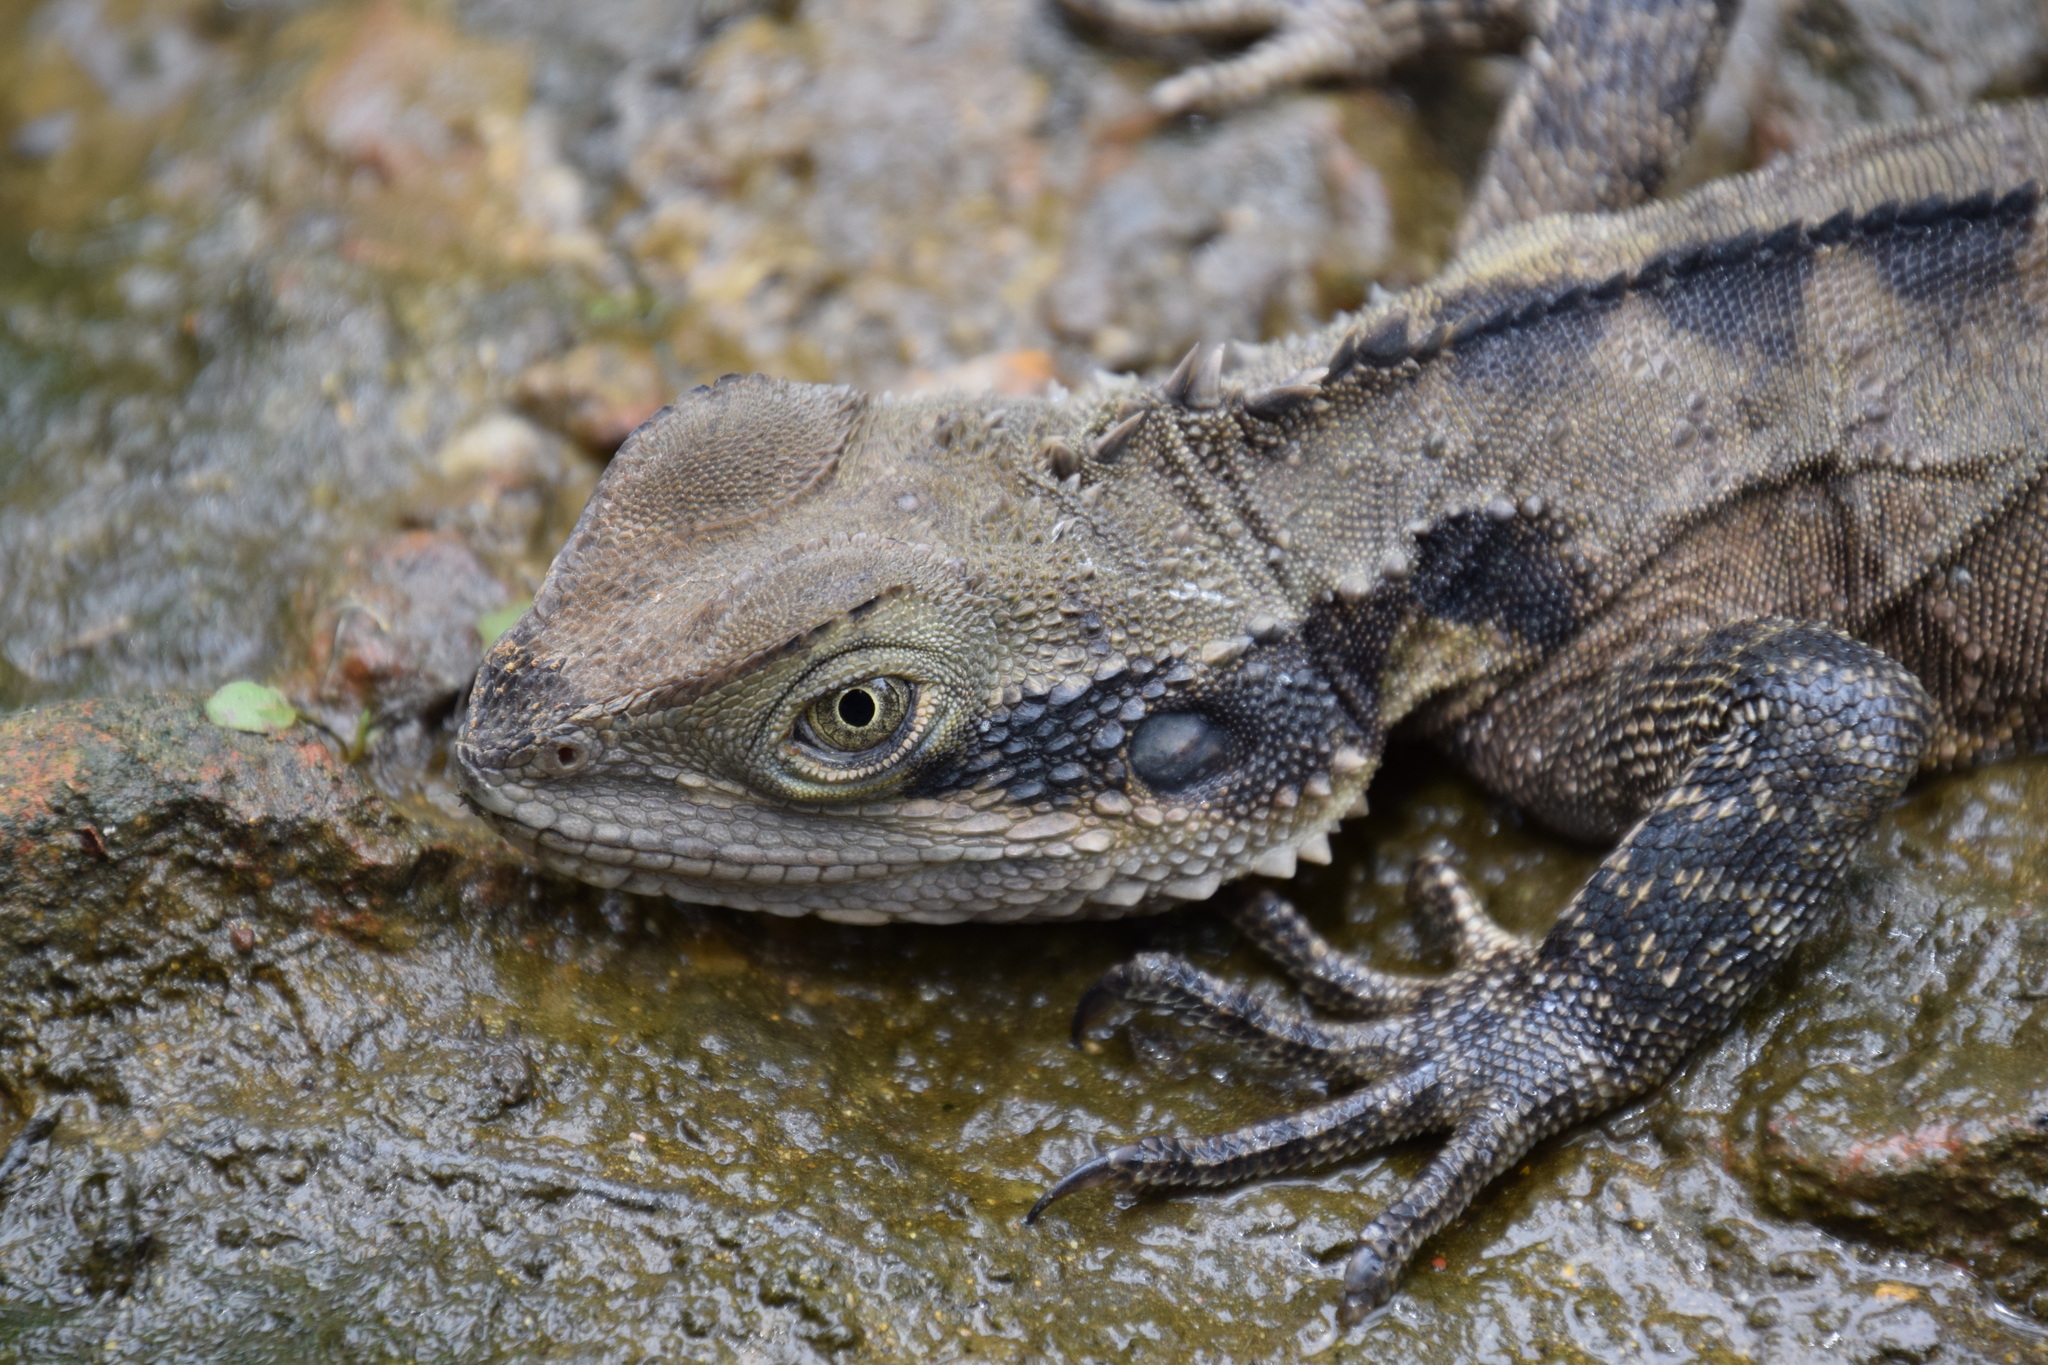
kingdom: Animalia
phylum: Chordata
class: Squamata
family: Agamidae
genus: Intellagama
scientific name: Intellagama lesueurii
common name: Eastern water dragon
